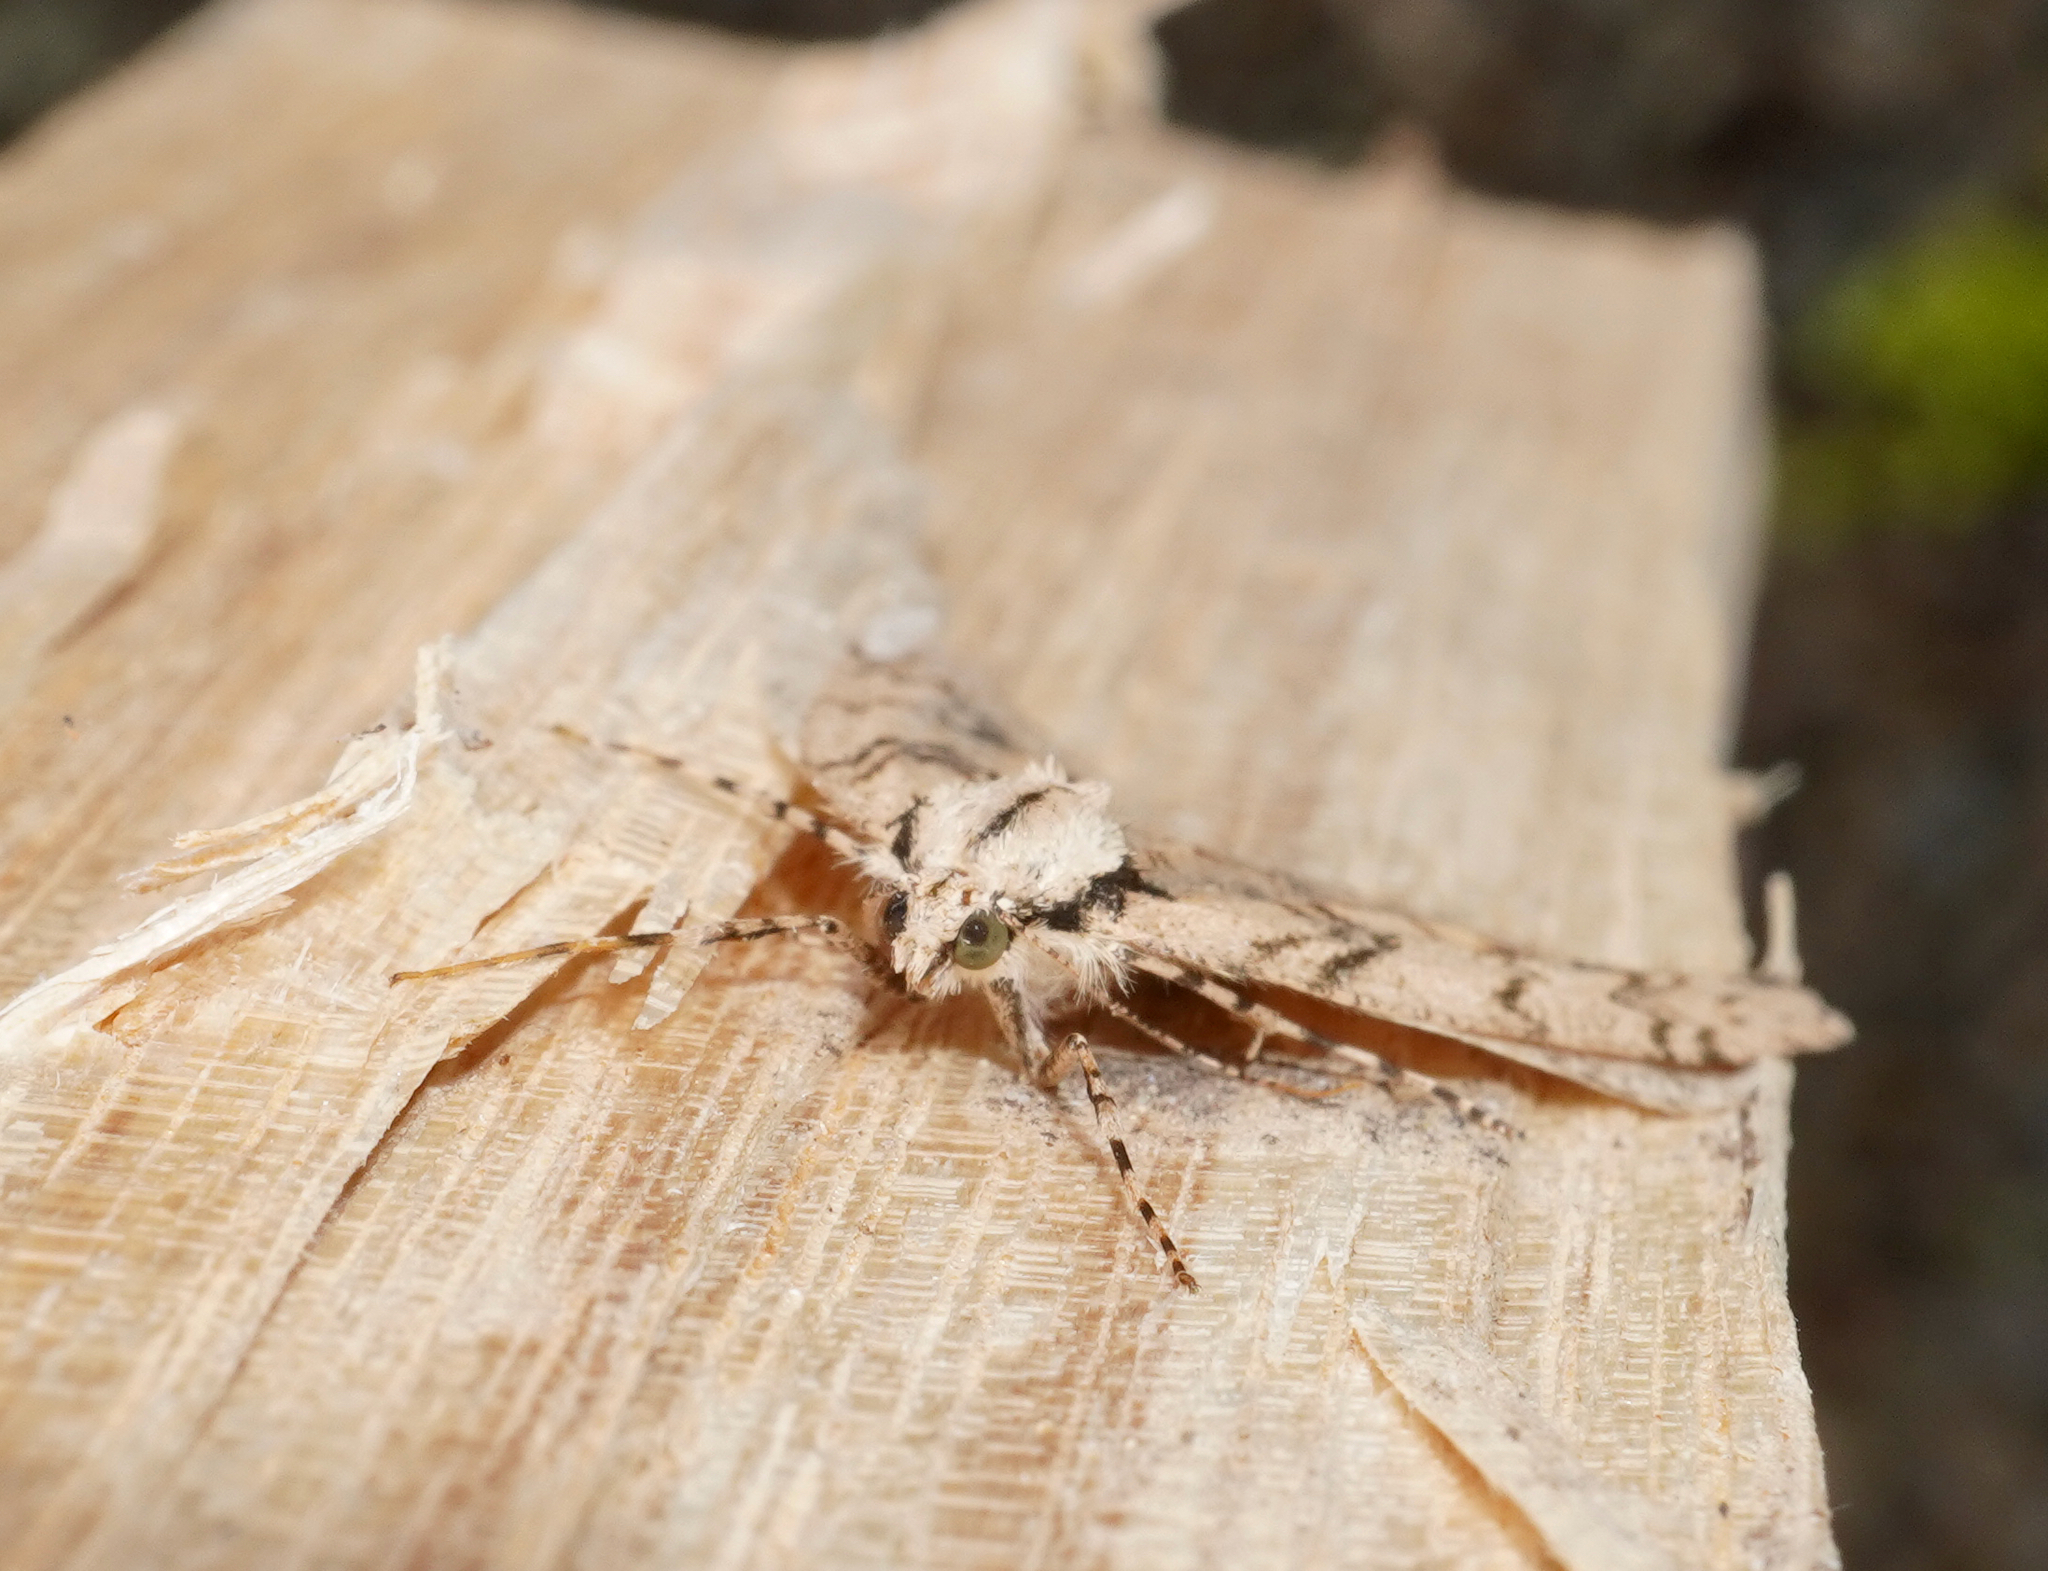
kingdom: Animalia
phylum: Arthropoda
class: Insecta
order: Lepidoptera
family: Geometridae
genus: Pseudocoremia
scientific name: Pseudocoremia rudisata
